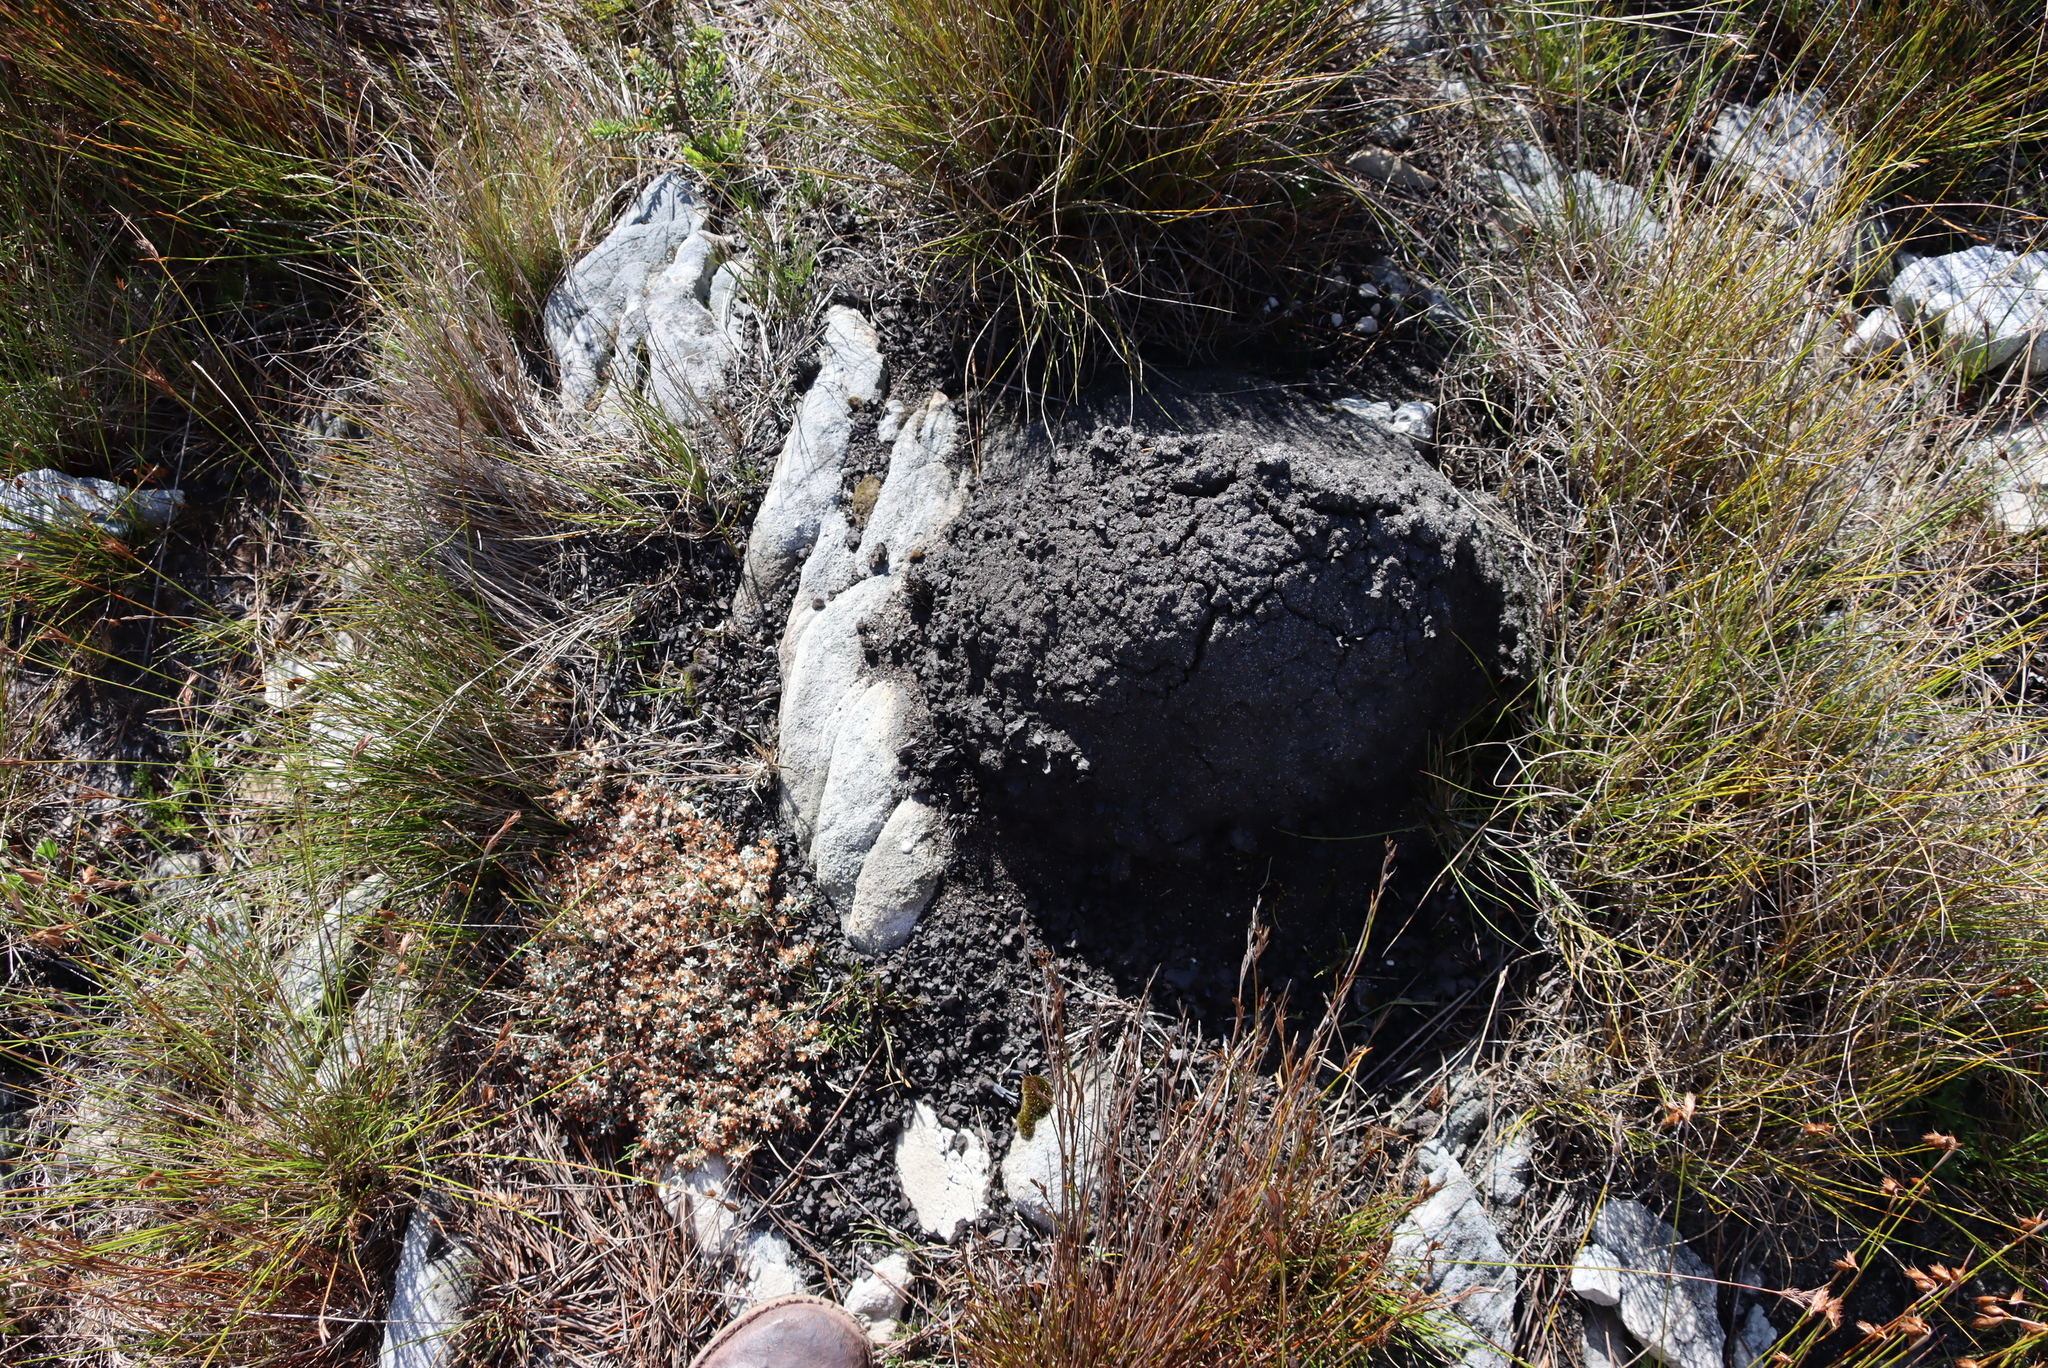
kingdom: Animalia
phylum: Arthropoda
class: Insecta
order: Blattodea
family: Termitidae
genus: Amitermes
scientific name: Amitermes hastatus
